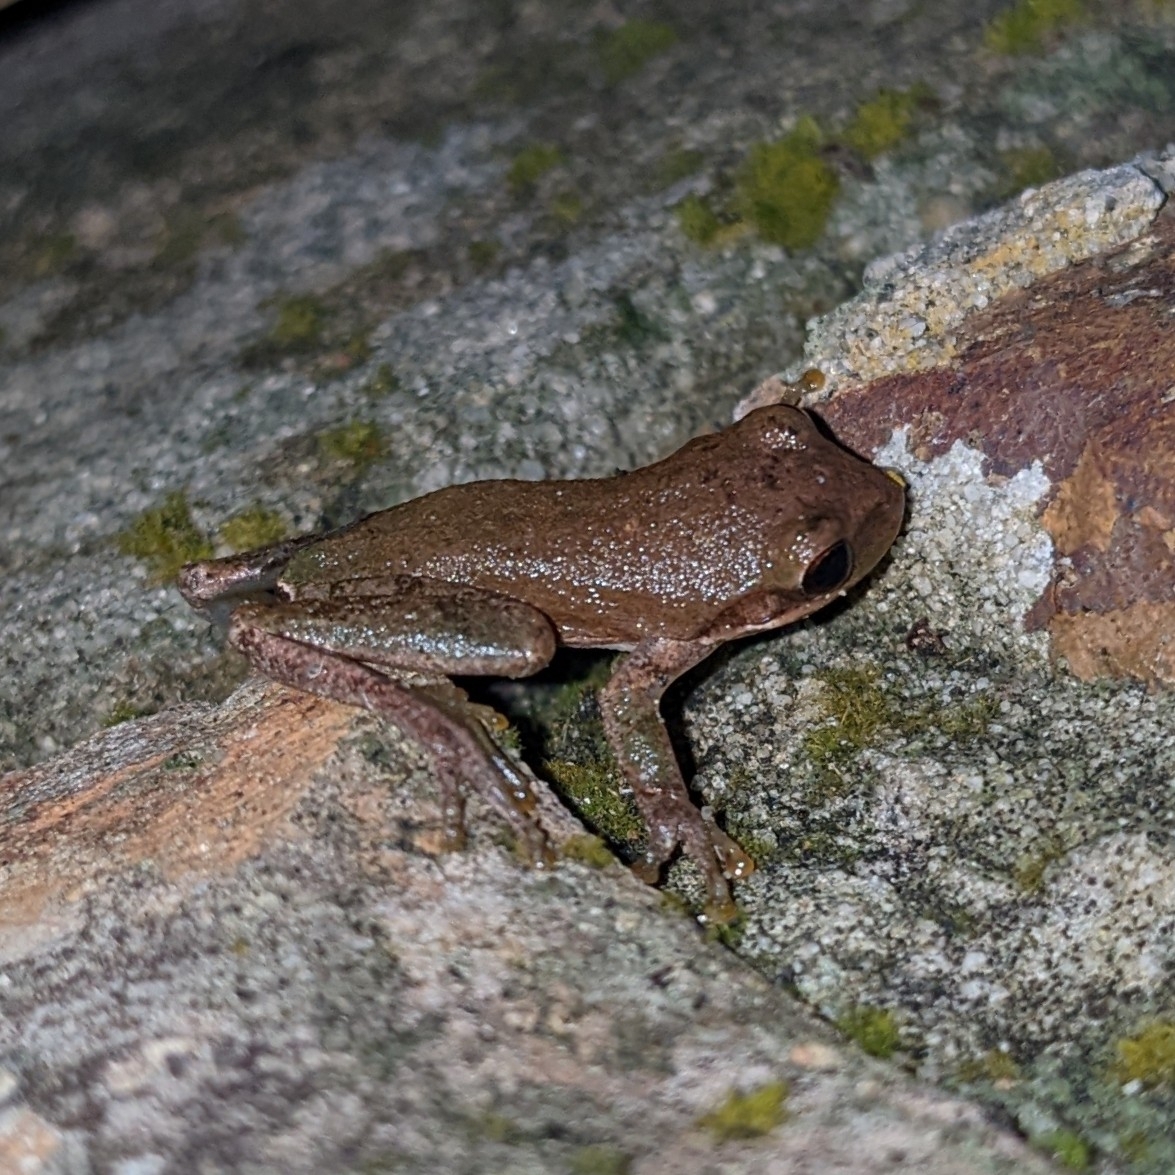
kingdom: Animalia
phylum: Chordata
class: Amphibia
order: Anura
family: Hylidae
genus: Dryophytes
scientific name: Dryophytes squirellus
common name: Squirrel treefrog
